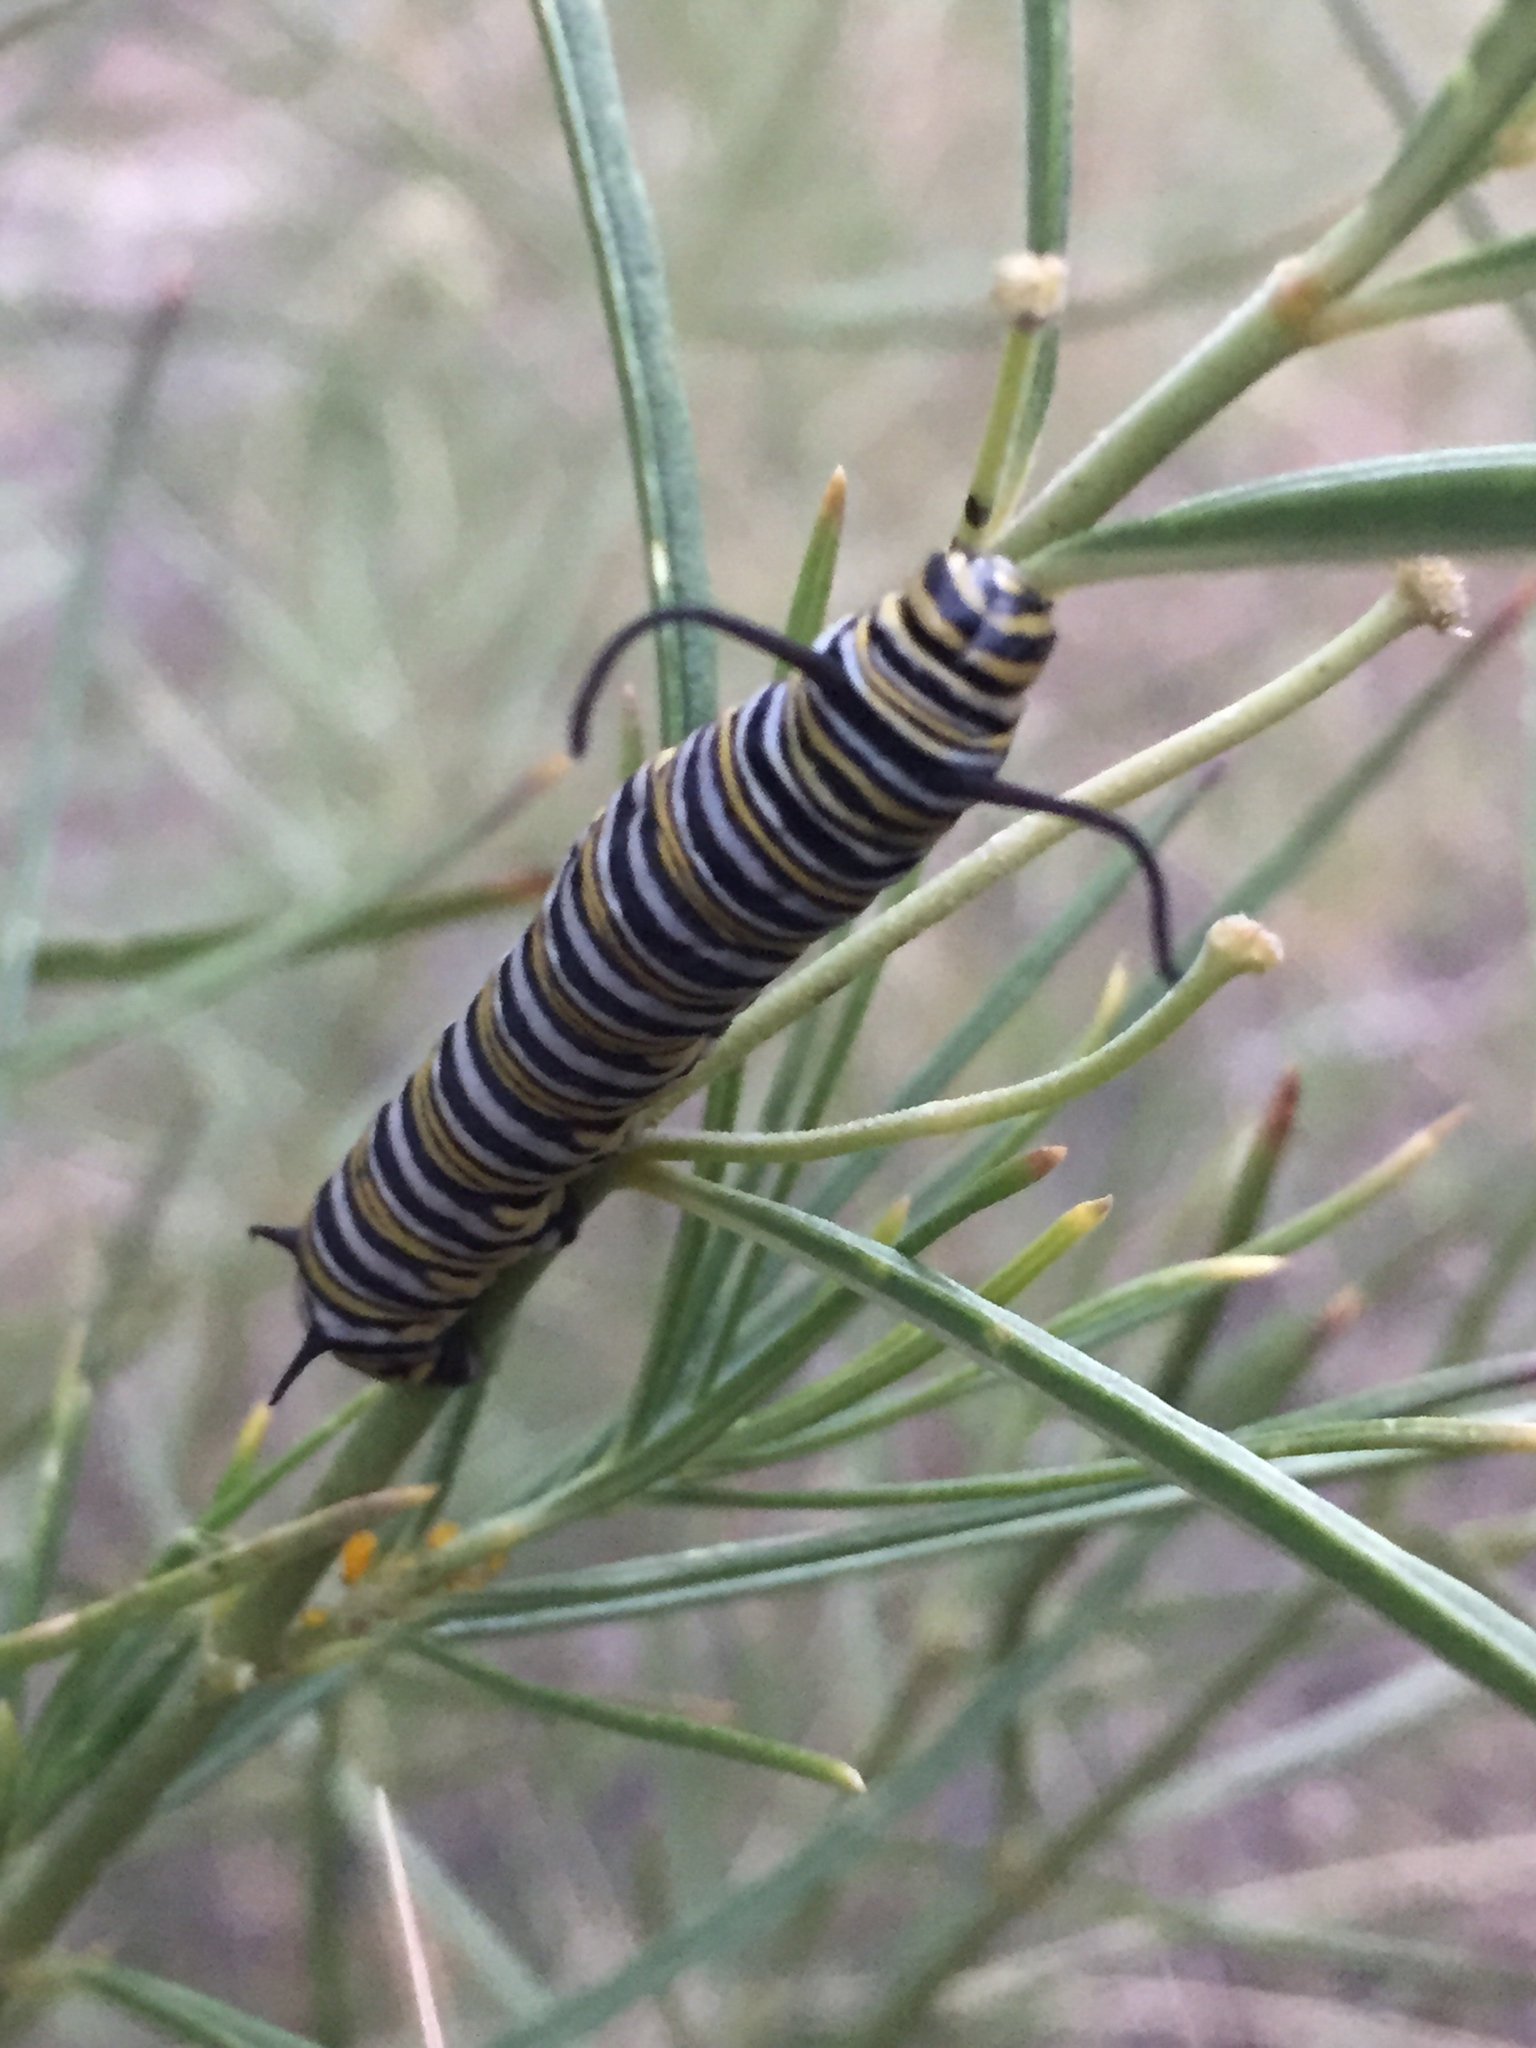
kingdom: Animalia
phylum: Arthropoda
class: Insecta
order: Lepidoptera
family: Nymphalidae
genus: Danaus
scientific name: Danaus plexippus
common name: Monarch
